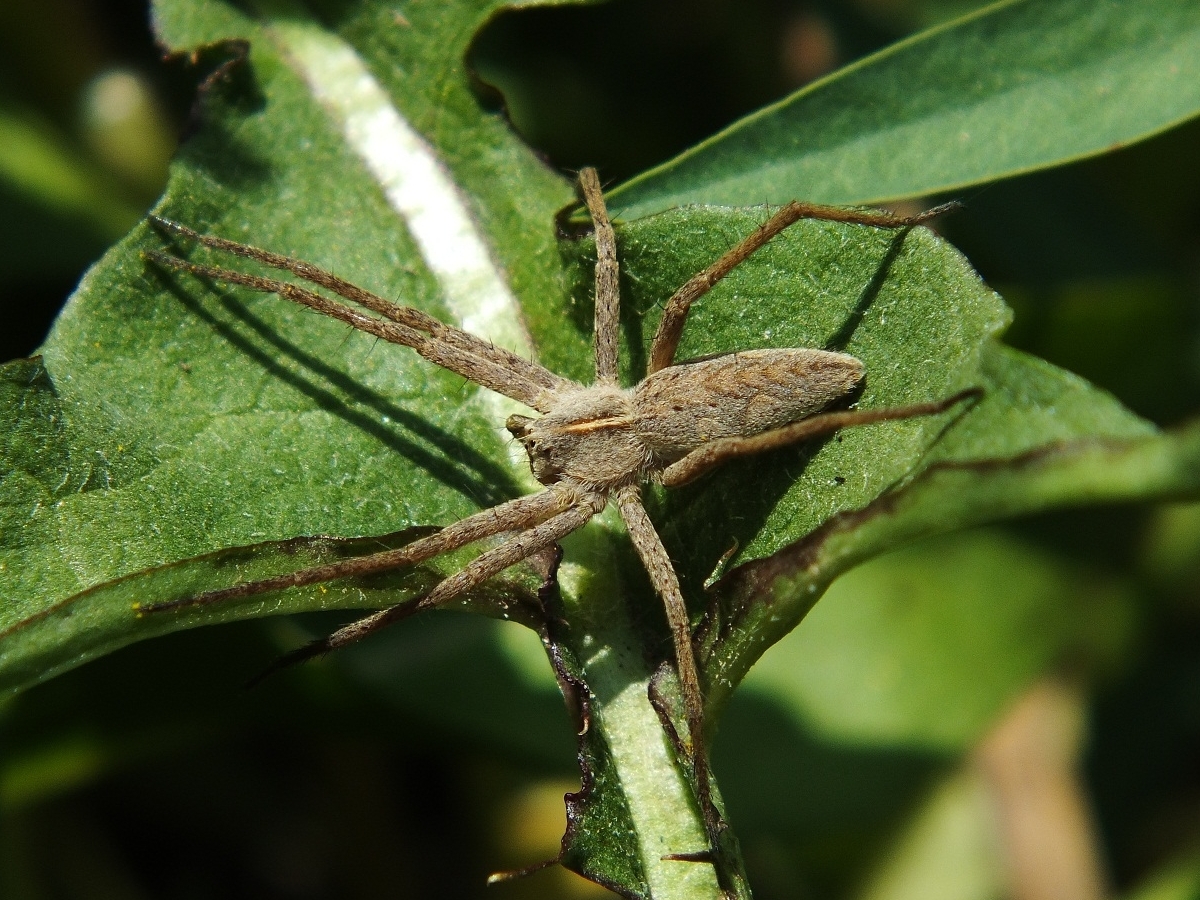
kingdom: Animalia
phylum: Arthropoda
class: Arachnida
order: Araneae
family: Pisauridae
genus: Pisaura
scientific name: Pisaura
